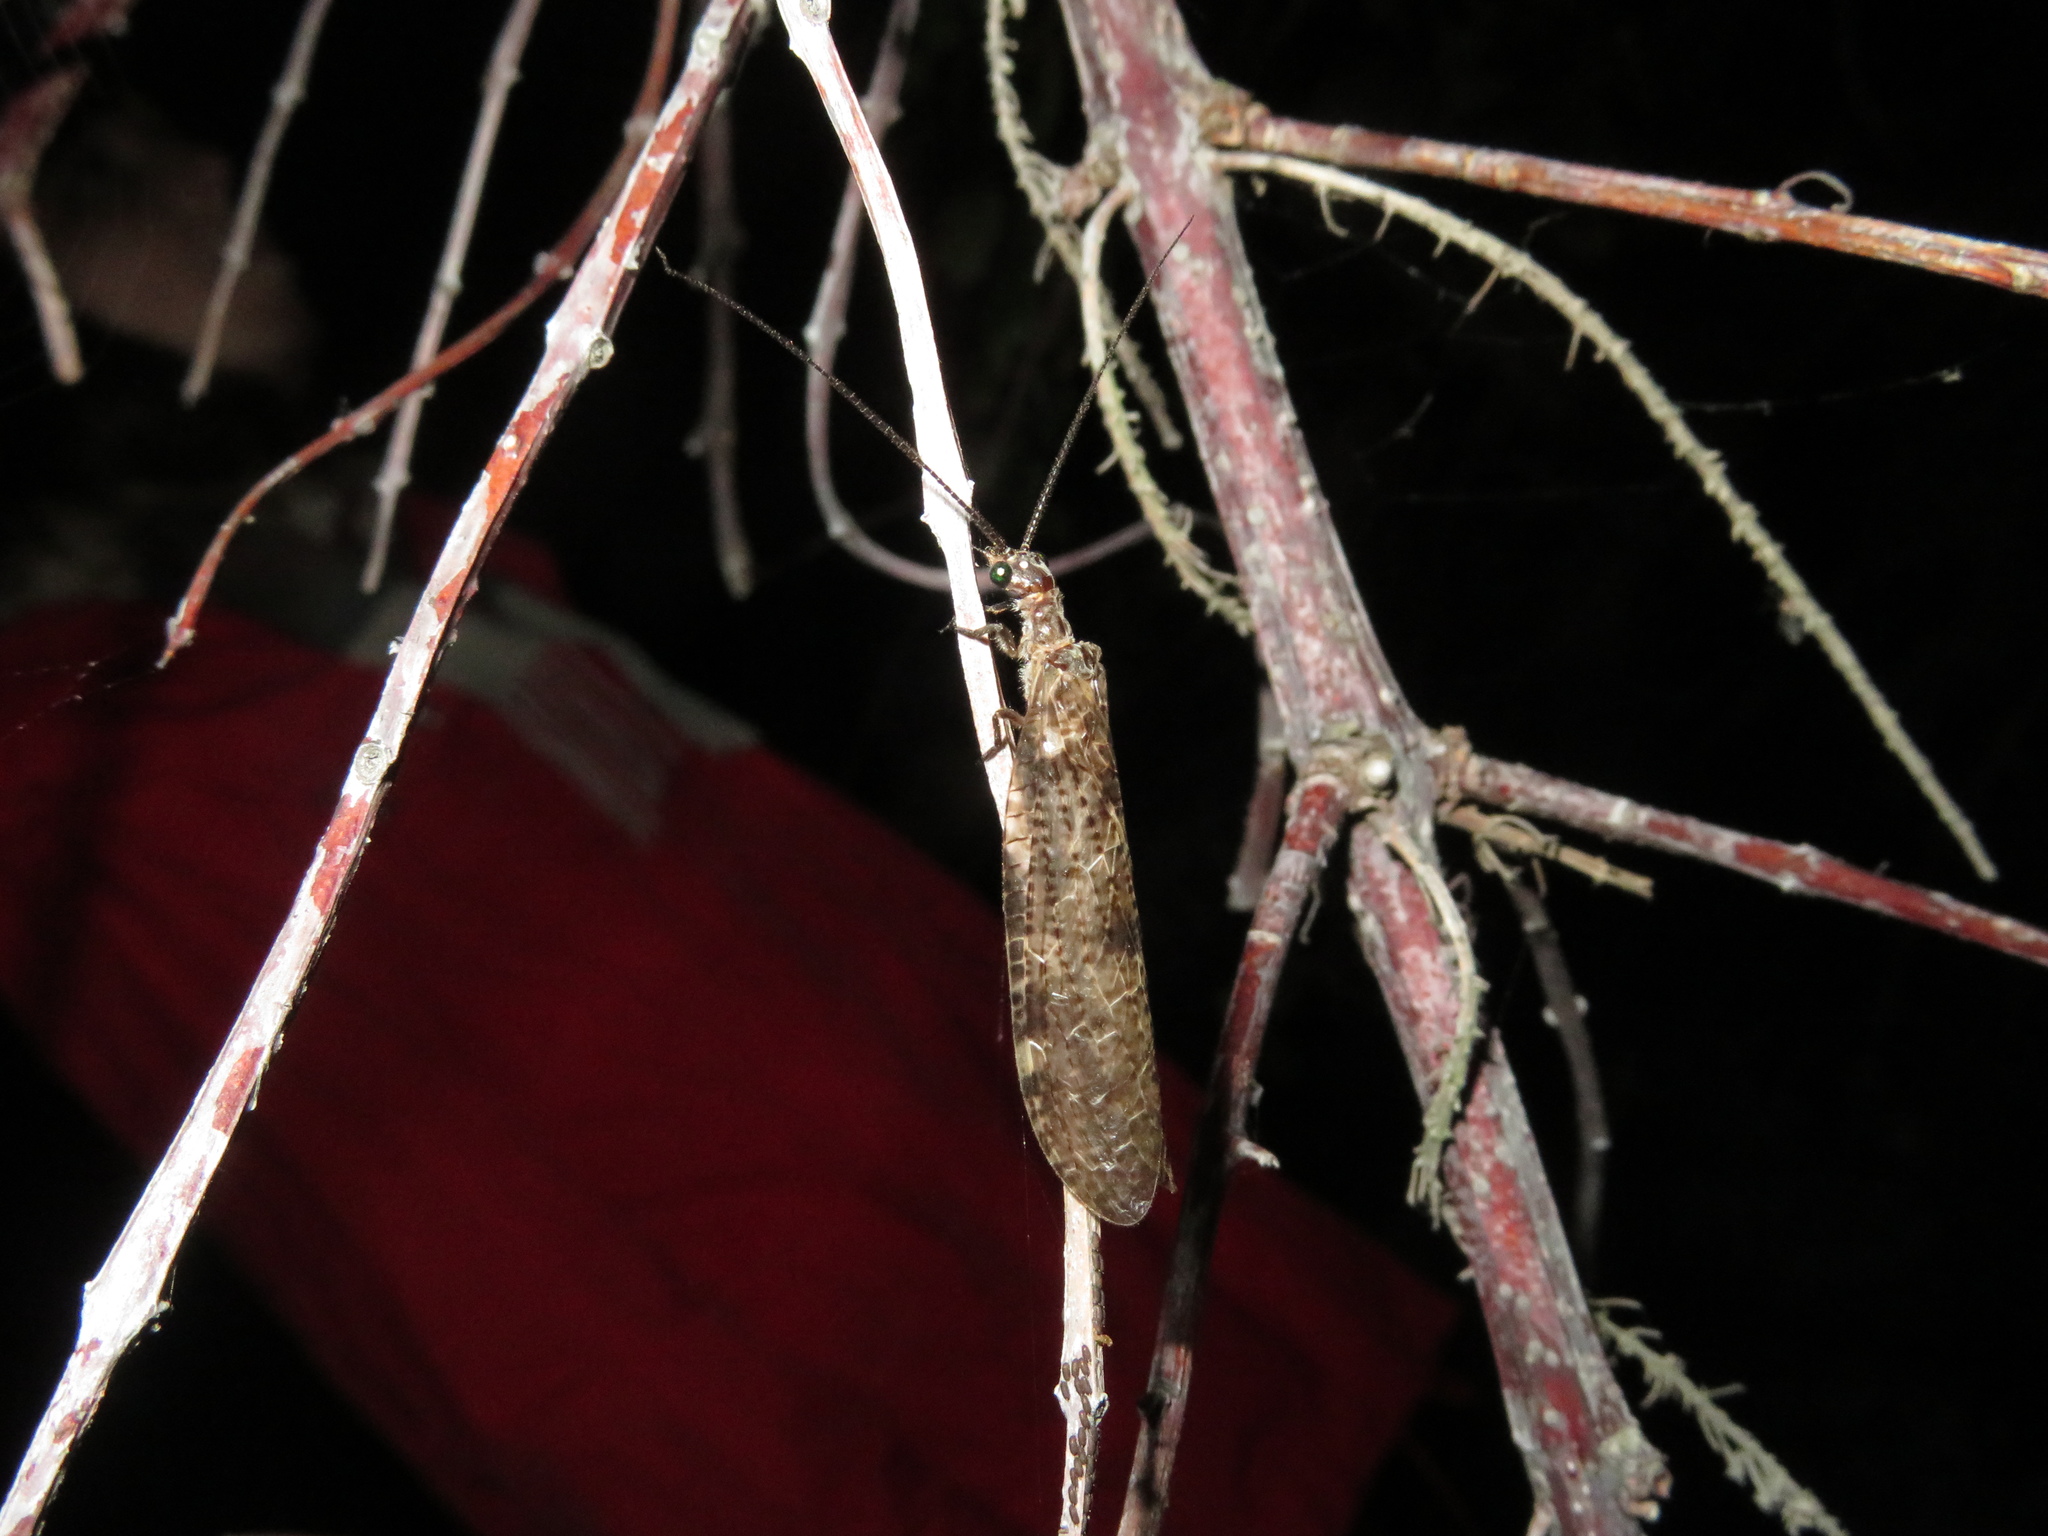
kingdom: Animalia
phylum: Arthropoda
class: Insecta
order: Megaloptera
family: Corydalidae
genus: Archichauliodes
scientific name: Archichauliodes diversus
